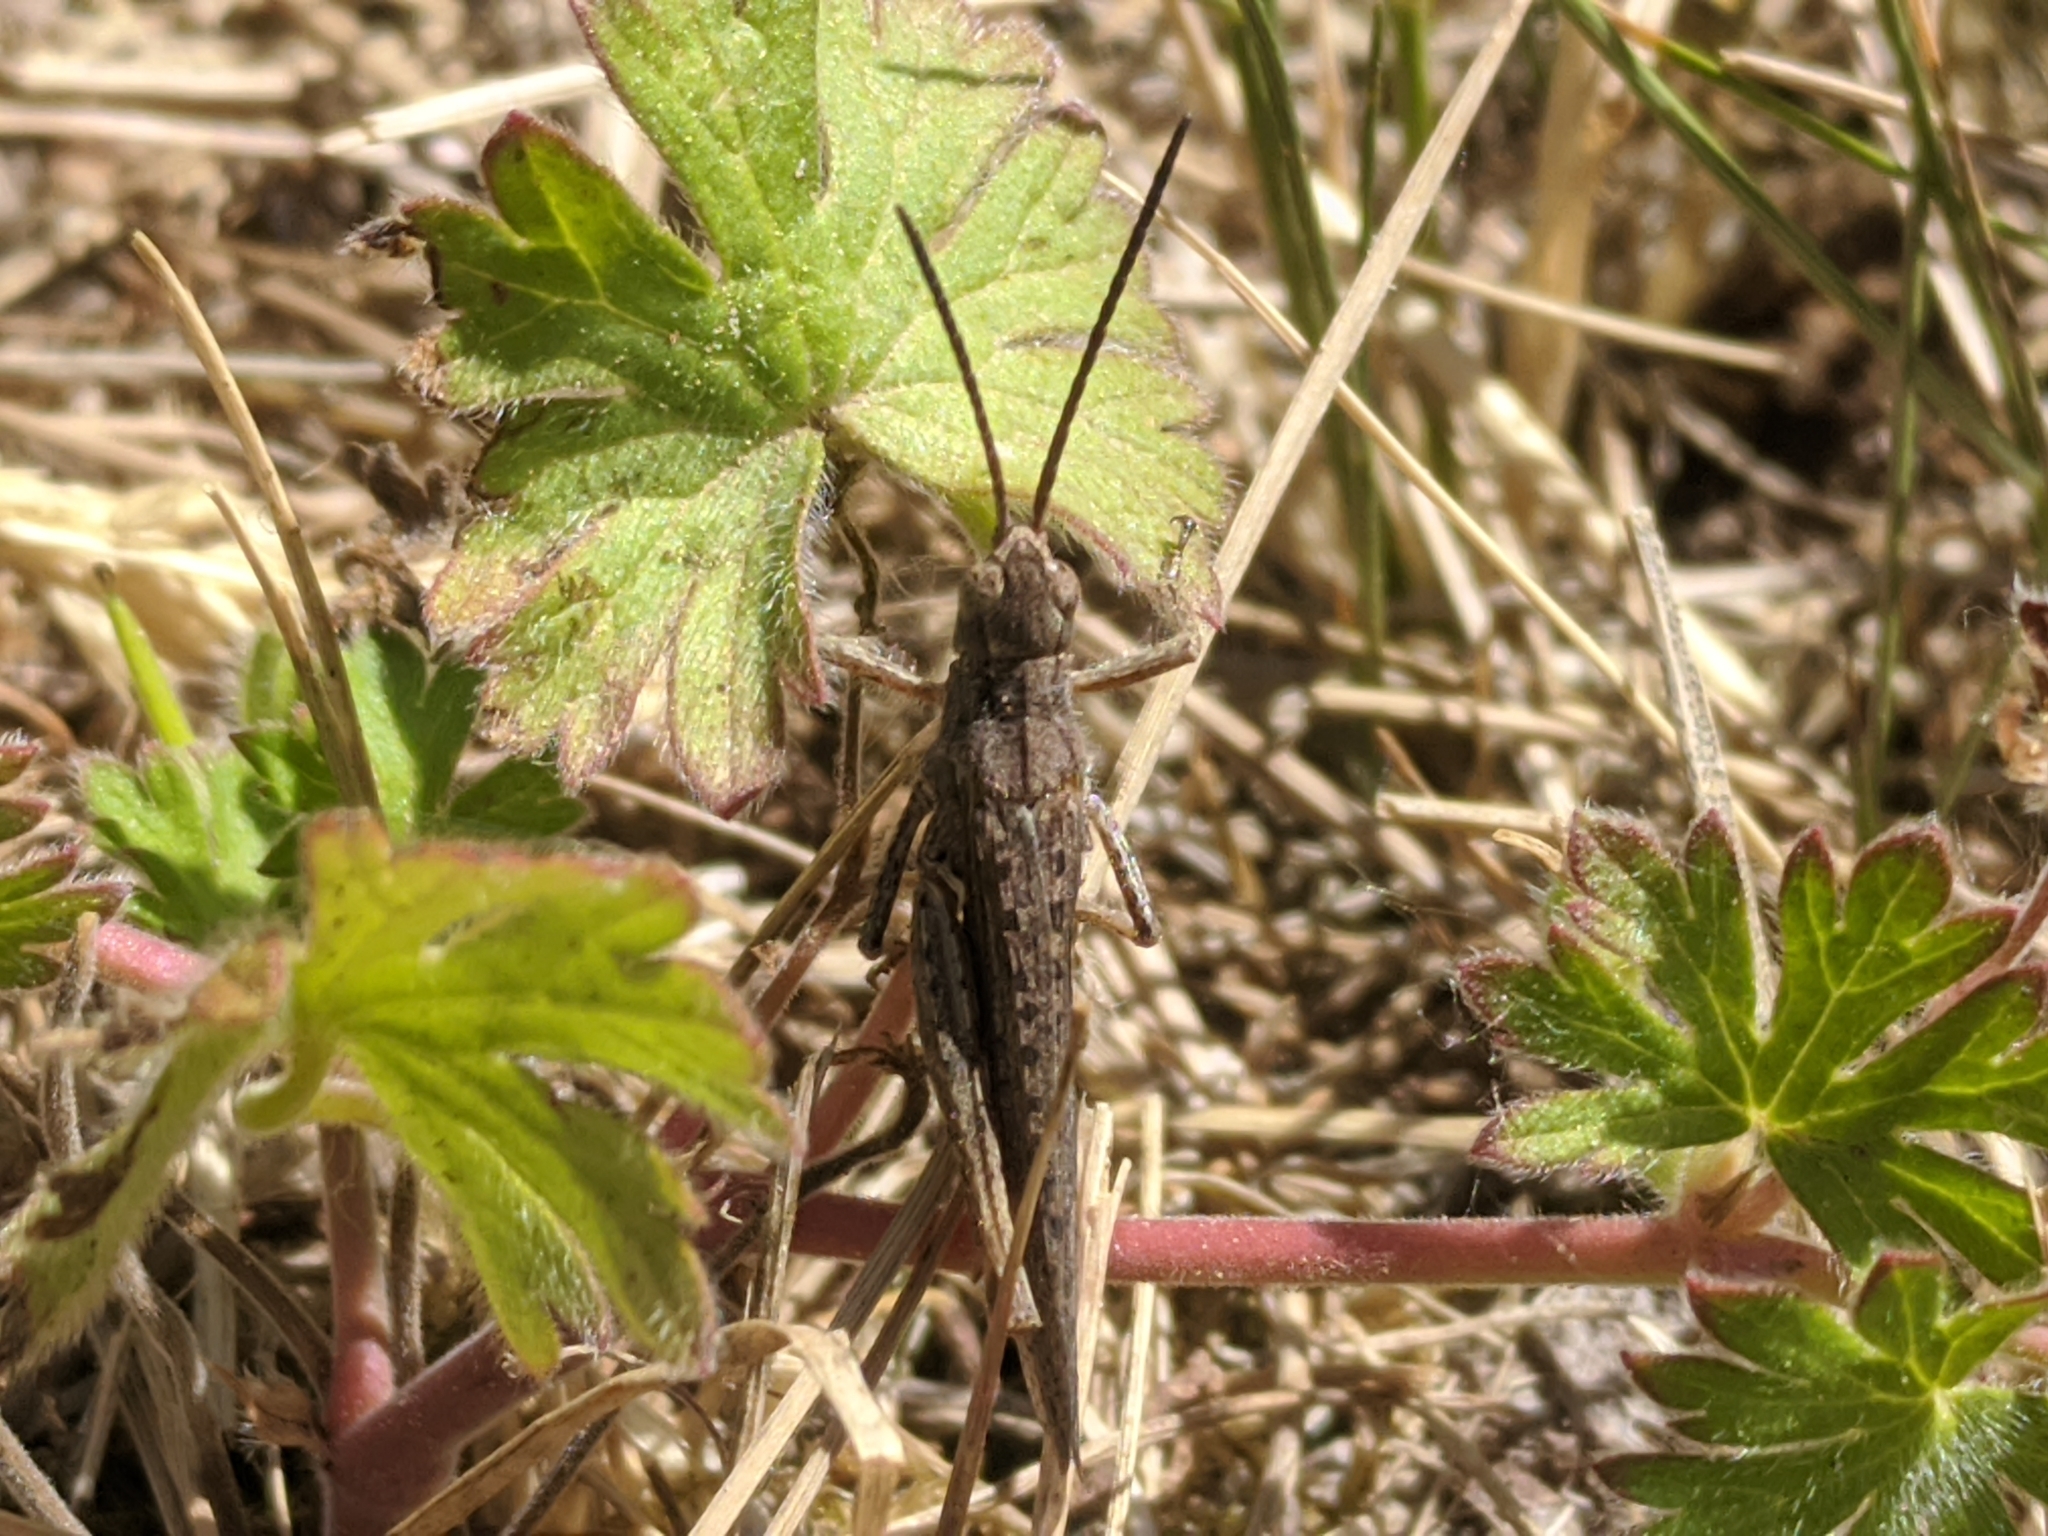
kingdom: Animalia
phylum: Arthropoda
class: Insecta
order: Orthoptera
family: Acrididae
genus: Chorthippus
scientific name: Chorthippus brunneus
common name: Field grasshopper
